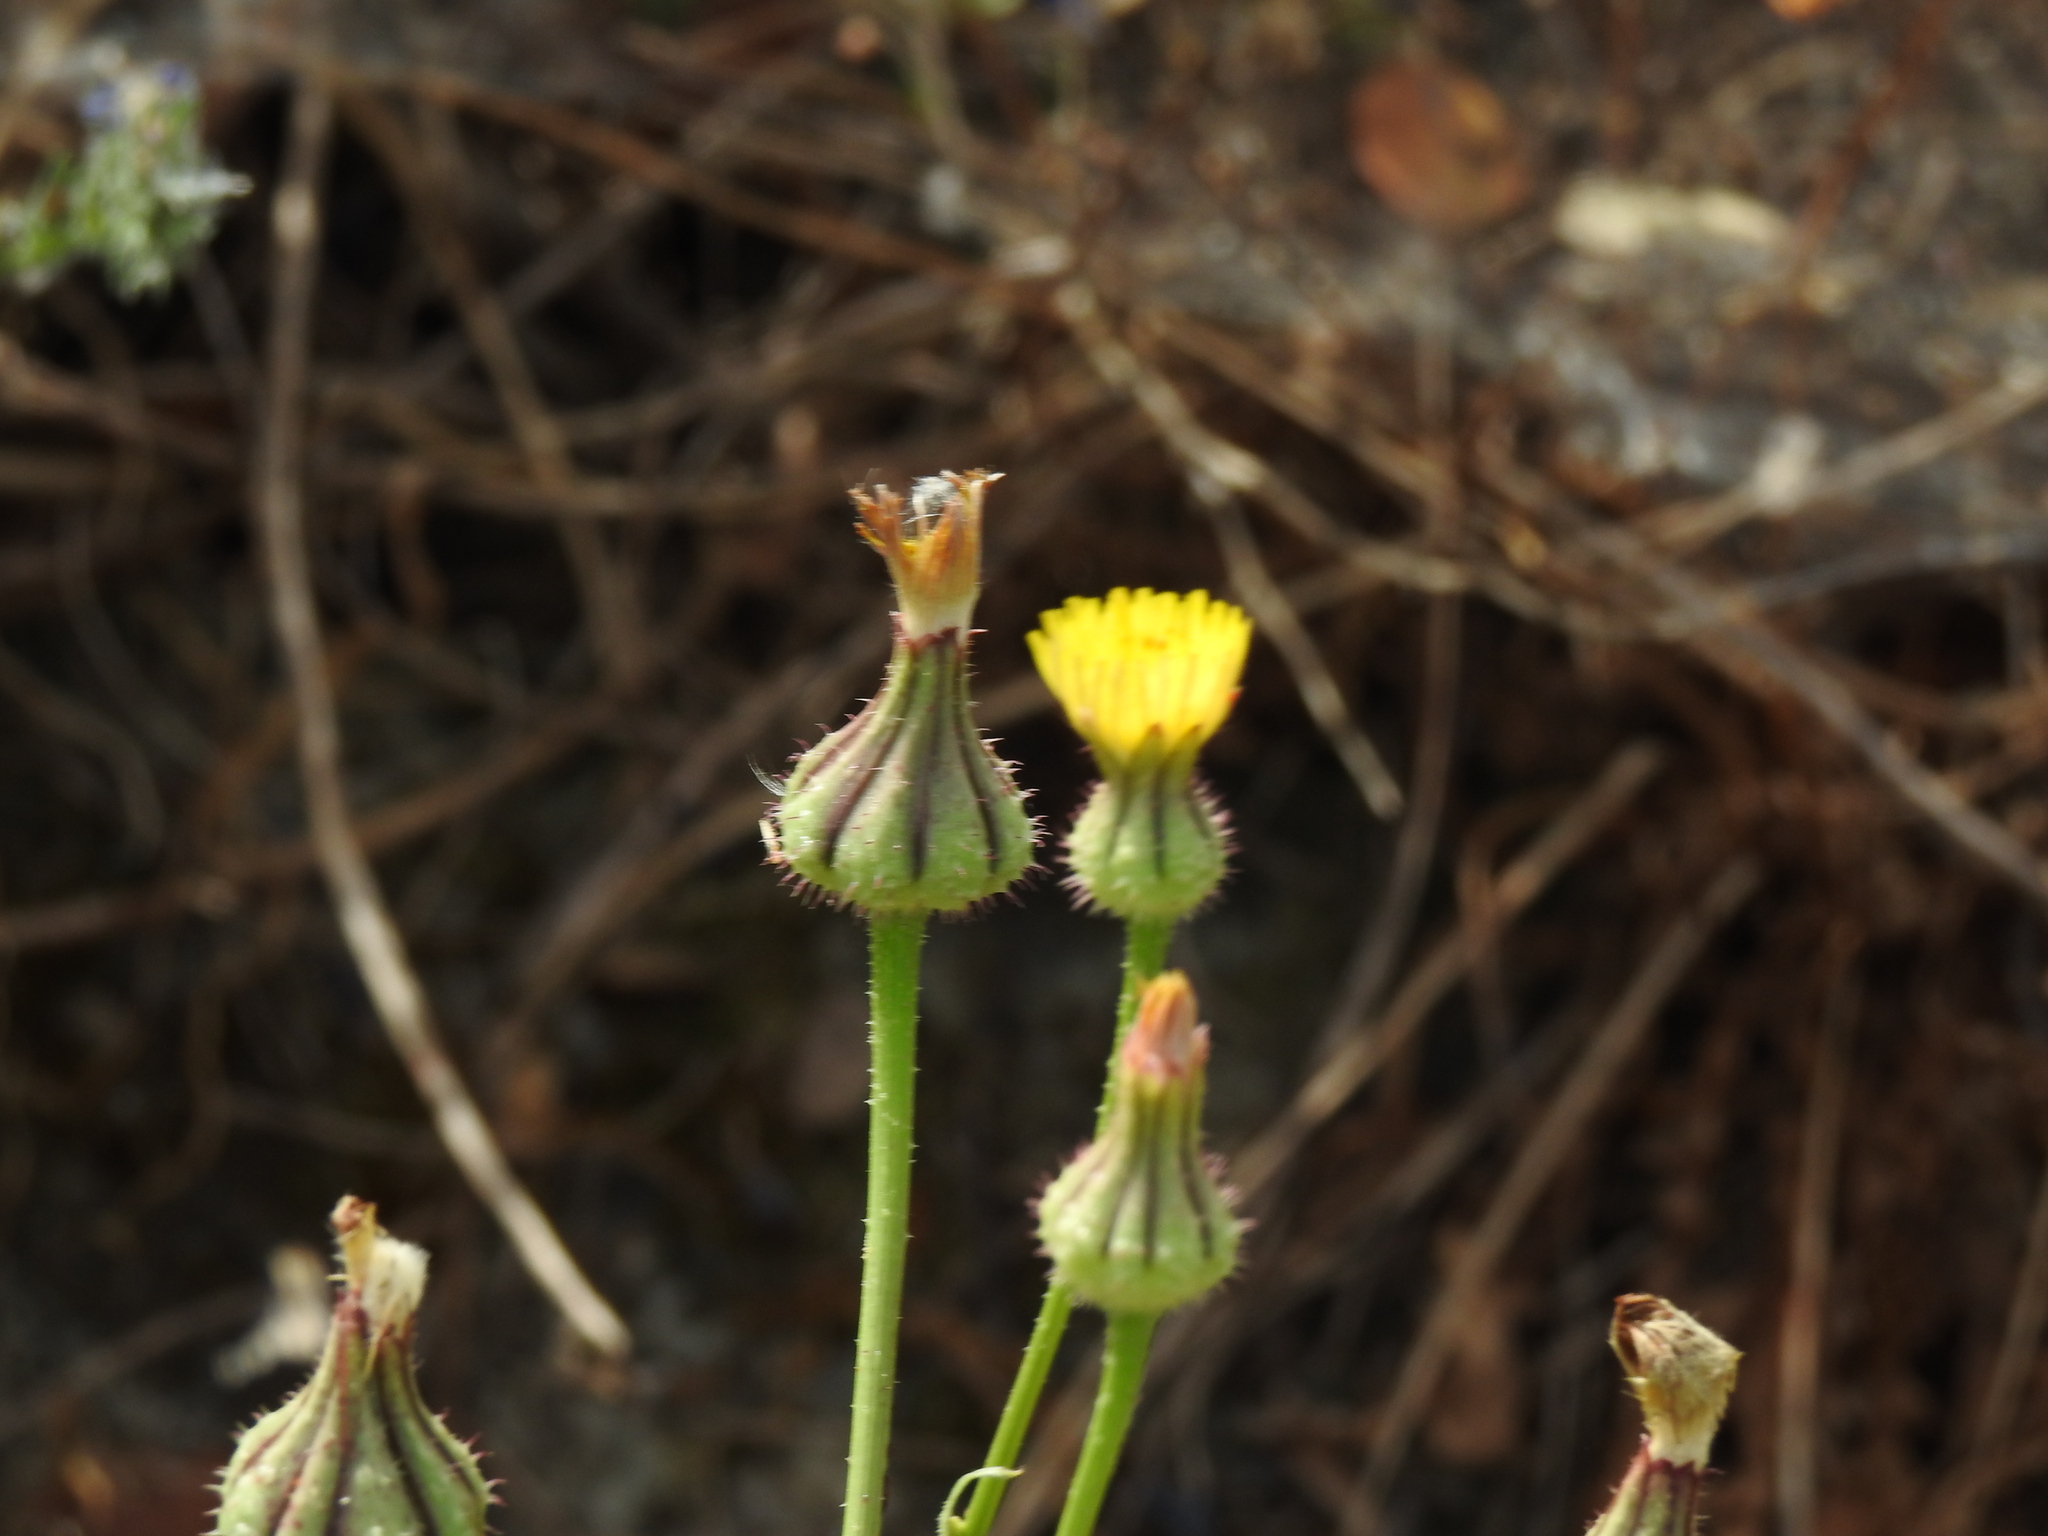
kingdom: Plantae
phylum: Tracheophyta
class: Magnoliopsida
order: Asterales
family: Asteraceae
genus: Urospermum
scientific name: Urospermum picroides
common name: False hawkbit
